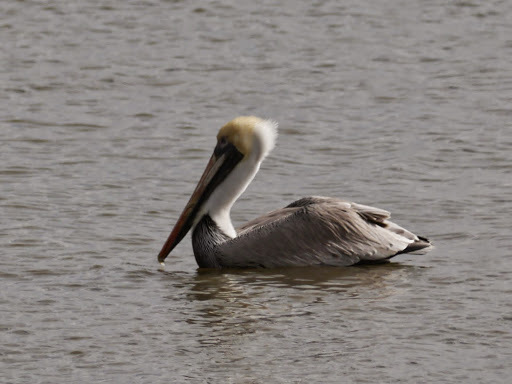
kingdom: Animalia
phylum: Chordata
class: Aves
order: Pelecaniformes
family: Pelecanidae
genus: Pelecanus
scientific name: Pelecanus occidentalis
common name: Brown pelican
